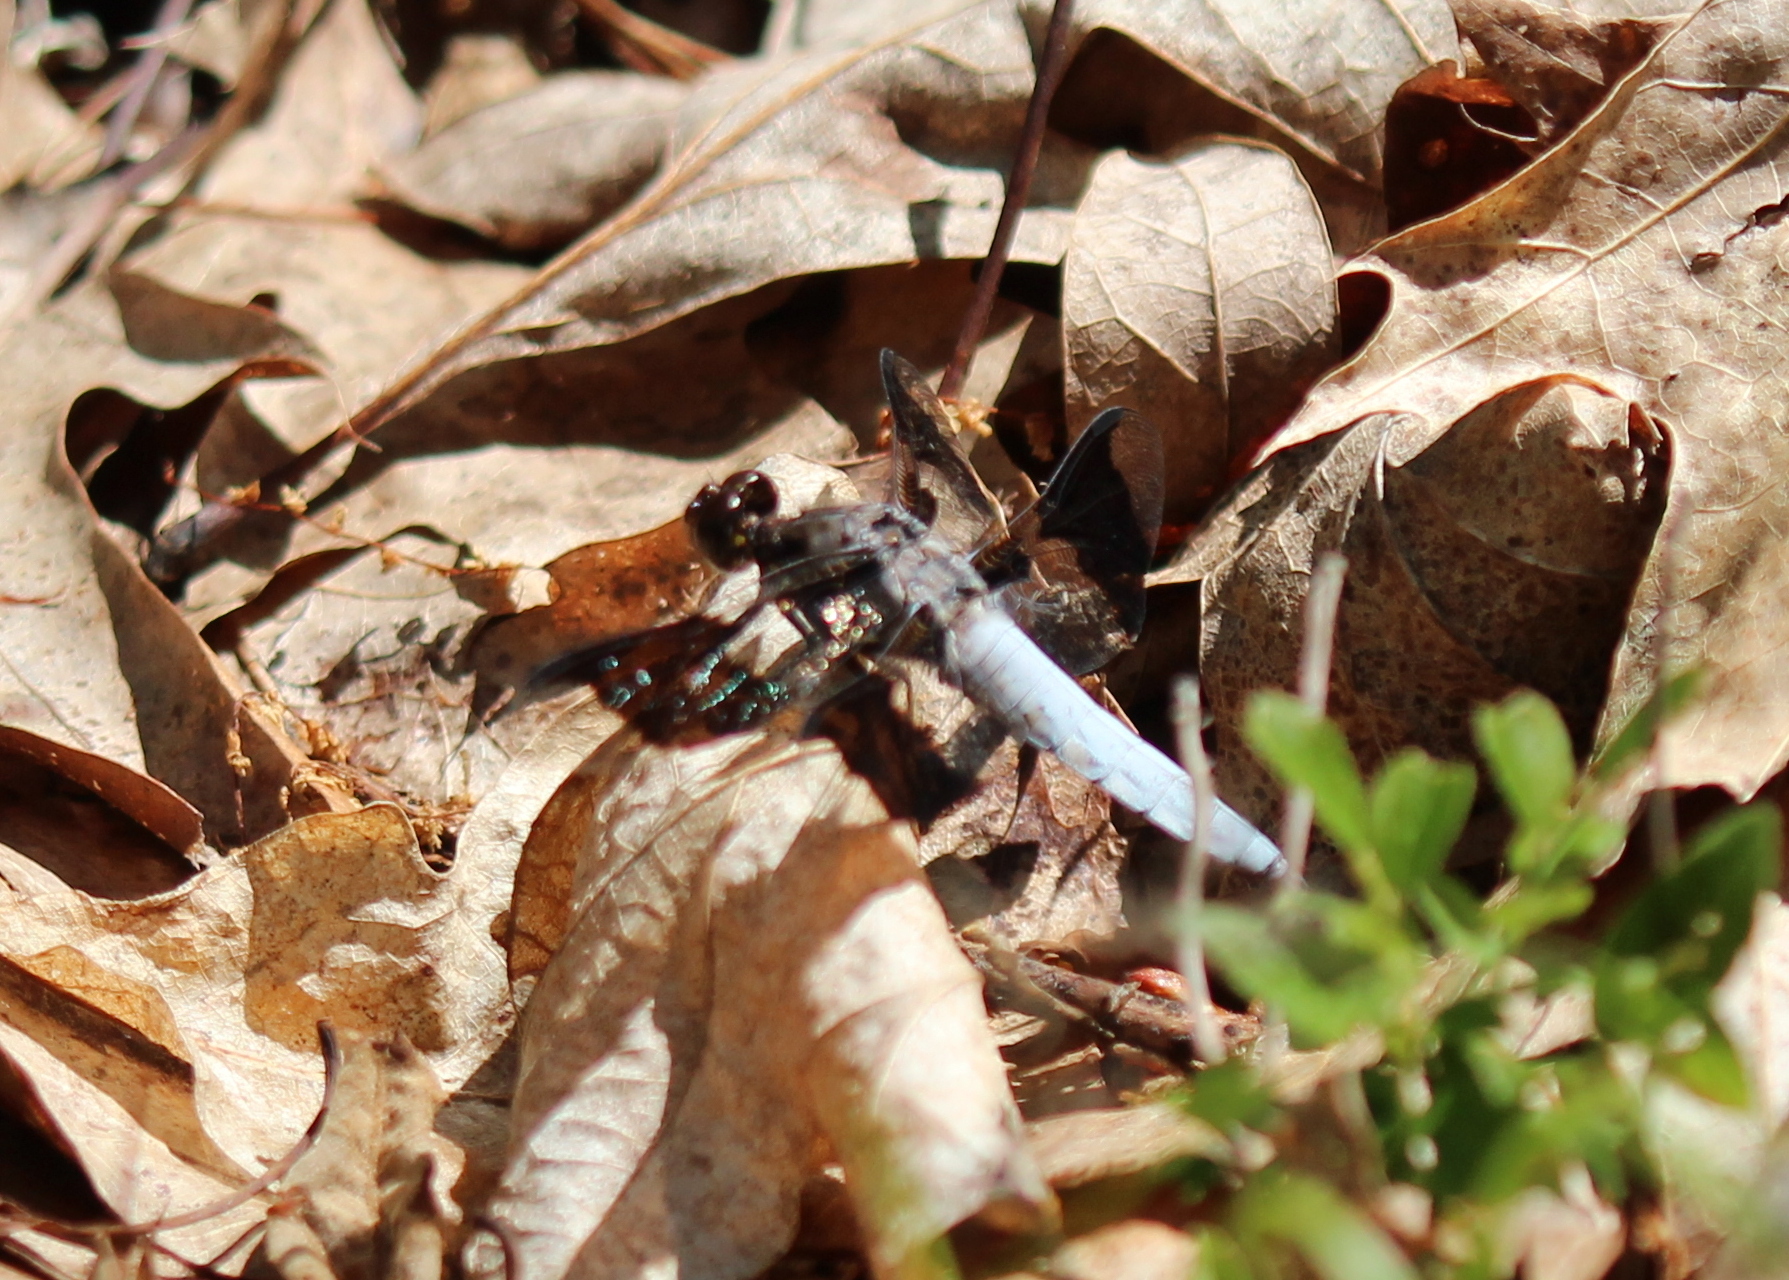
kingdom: Animalia
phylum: Arthropoda
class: Insecta
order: Odonata
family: Libellulidae
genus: Plathemis
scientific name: Plathemis lydia
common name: Common whitetail
